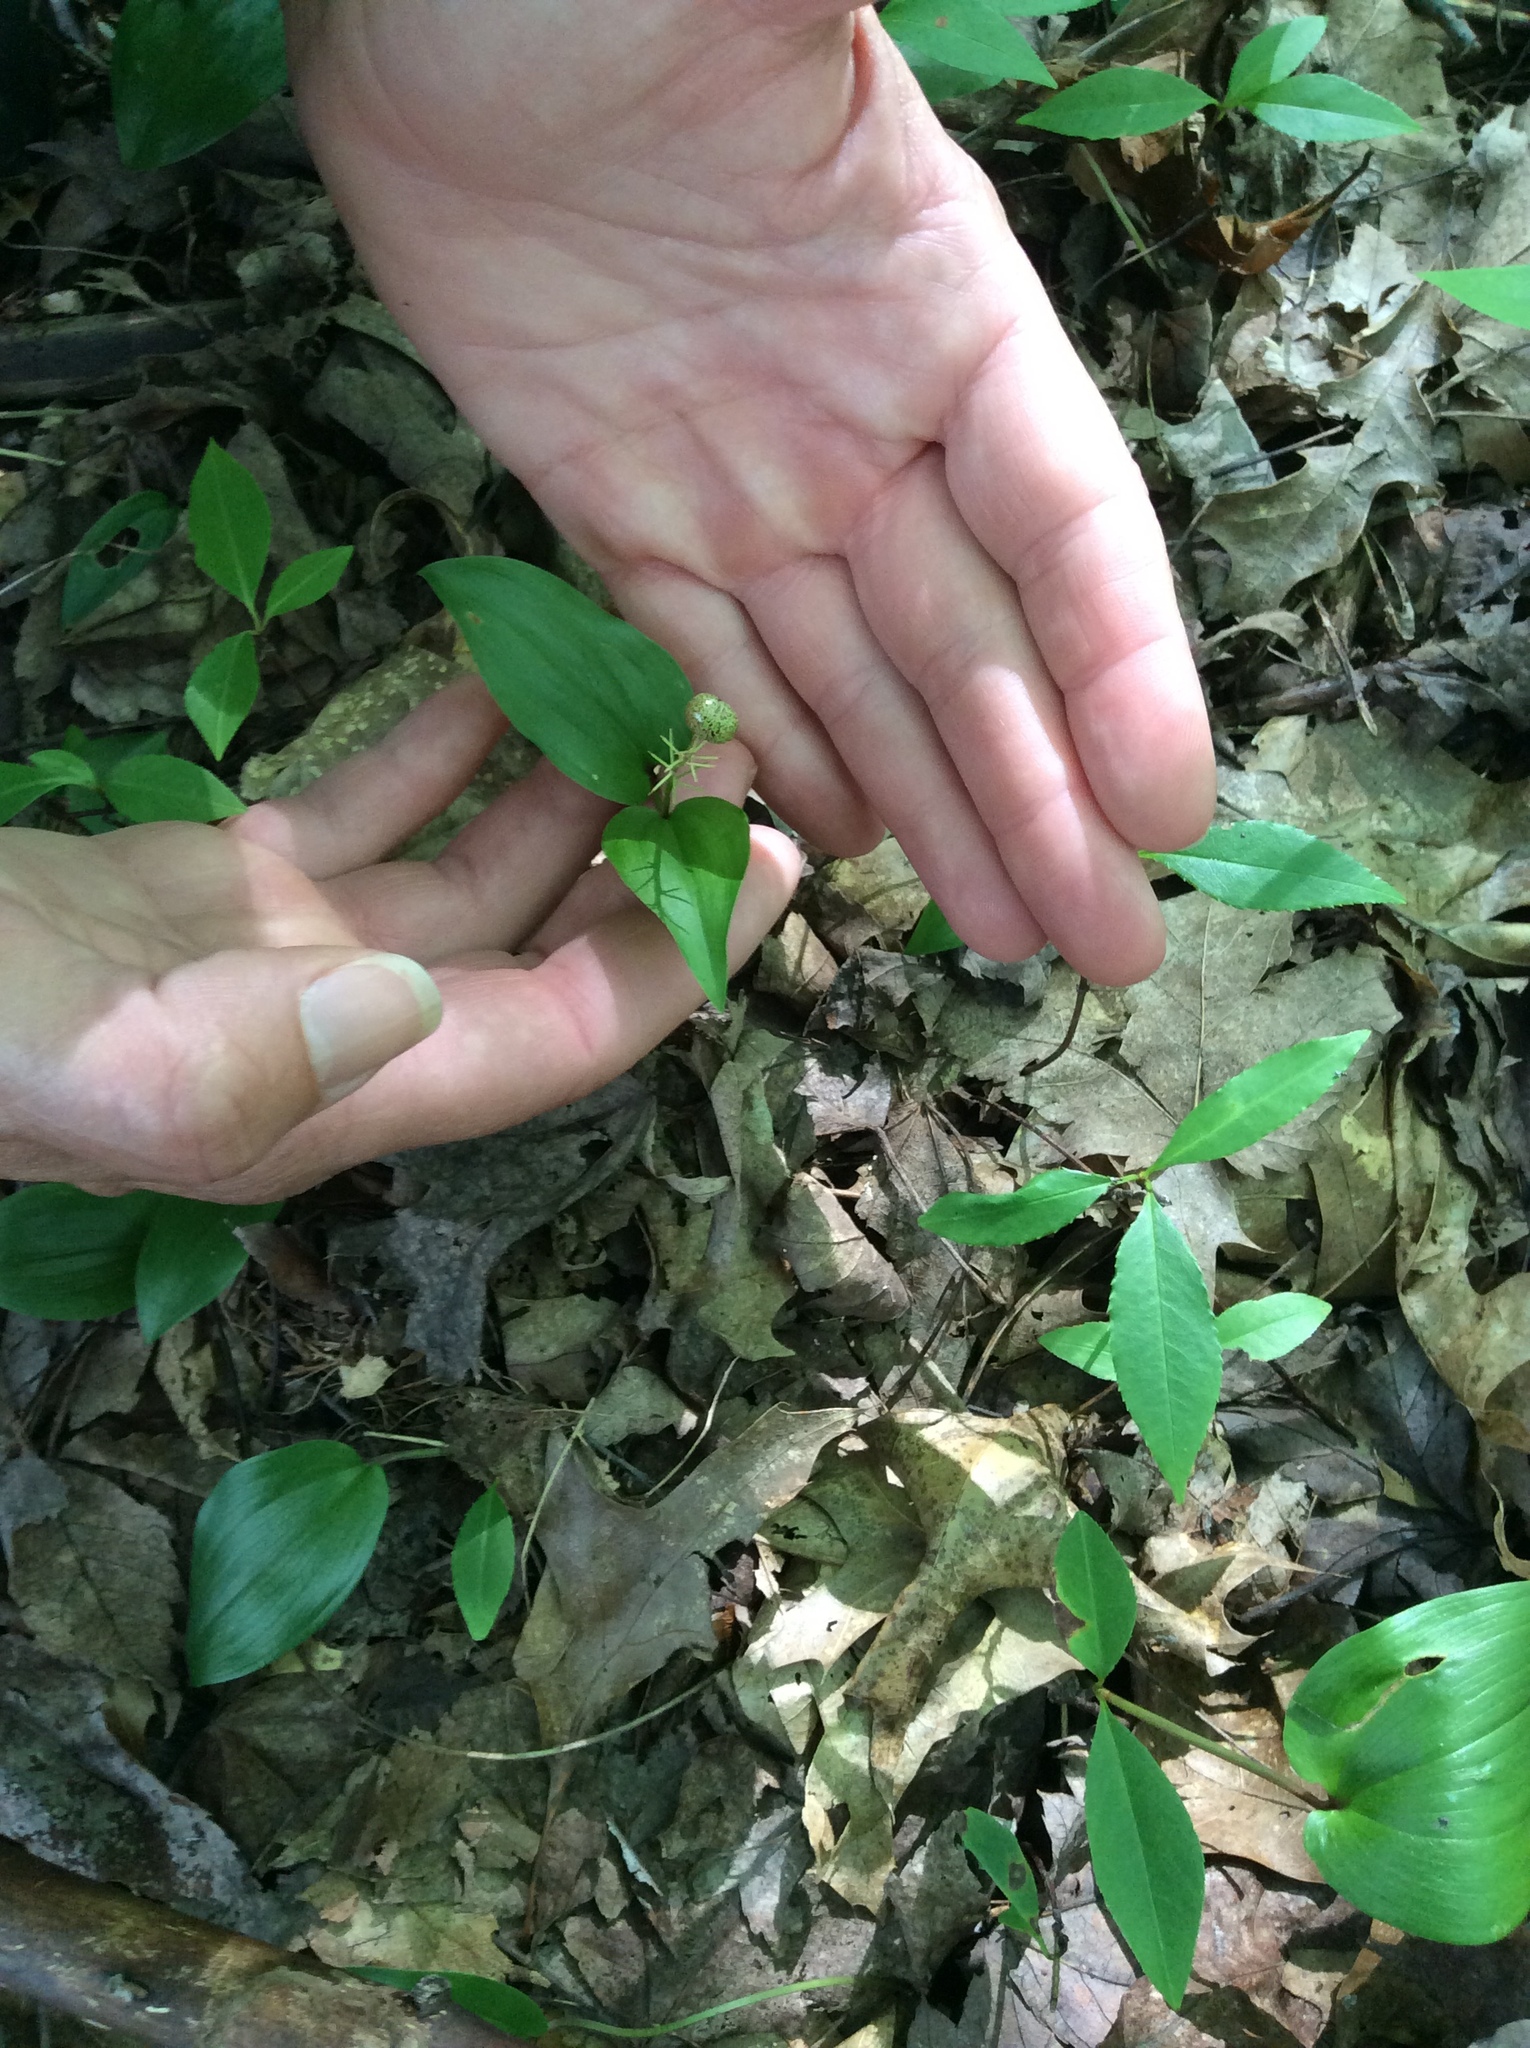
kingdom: Plantae
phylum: Tracheophyta
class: Liliopsida
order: Asparagales
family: Asparagaceae
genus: Maianthemum
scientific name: Maianthemum canadense
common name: False lily-of-the-valley
